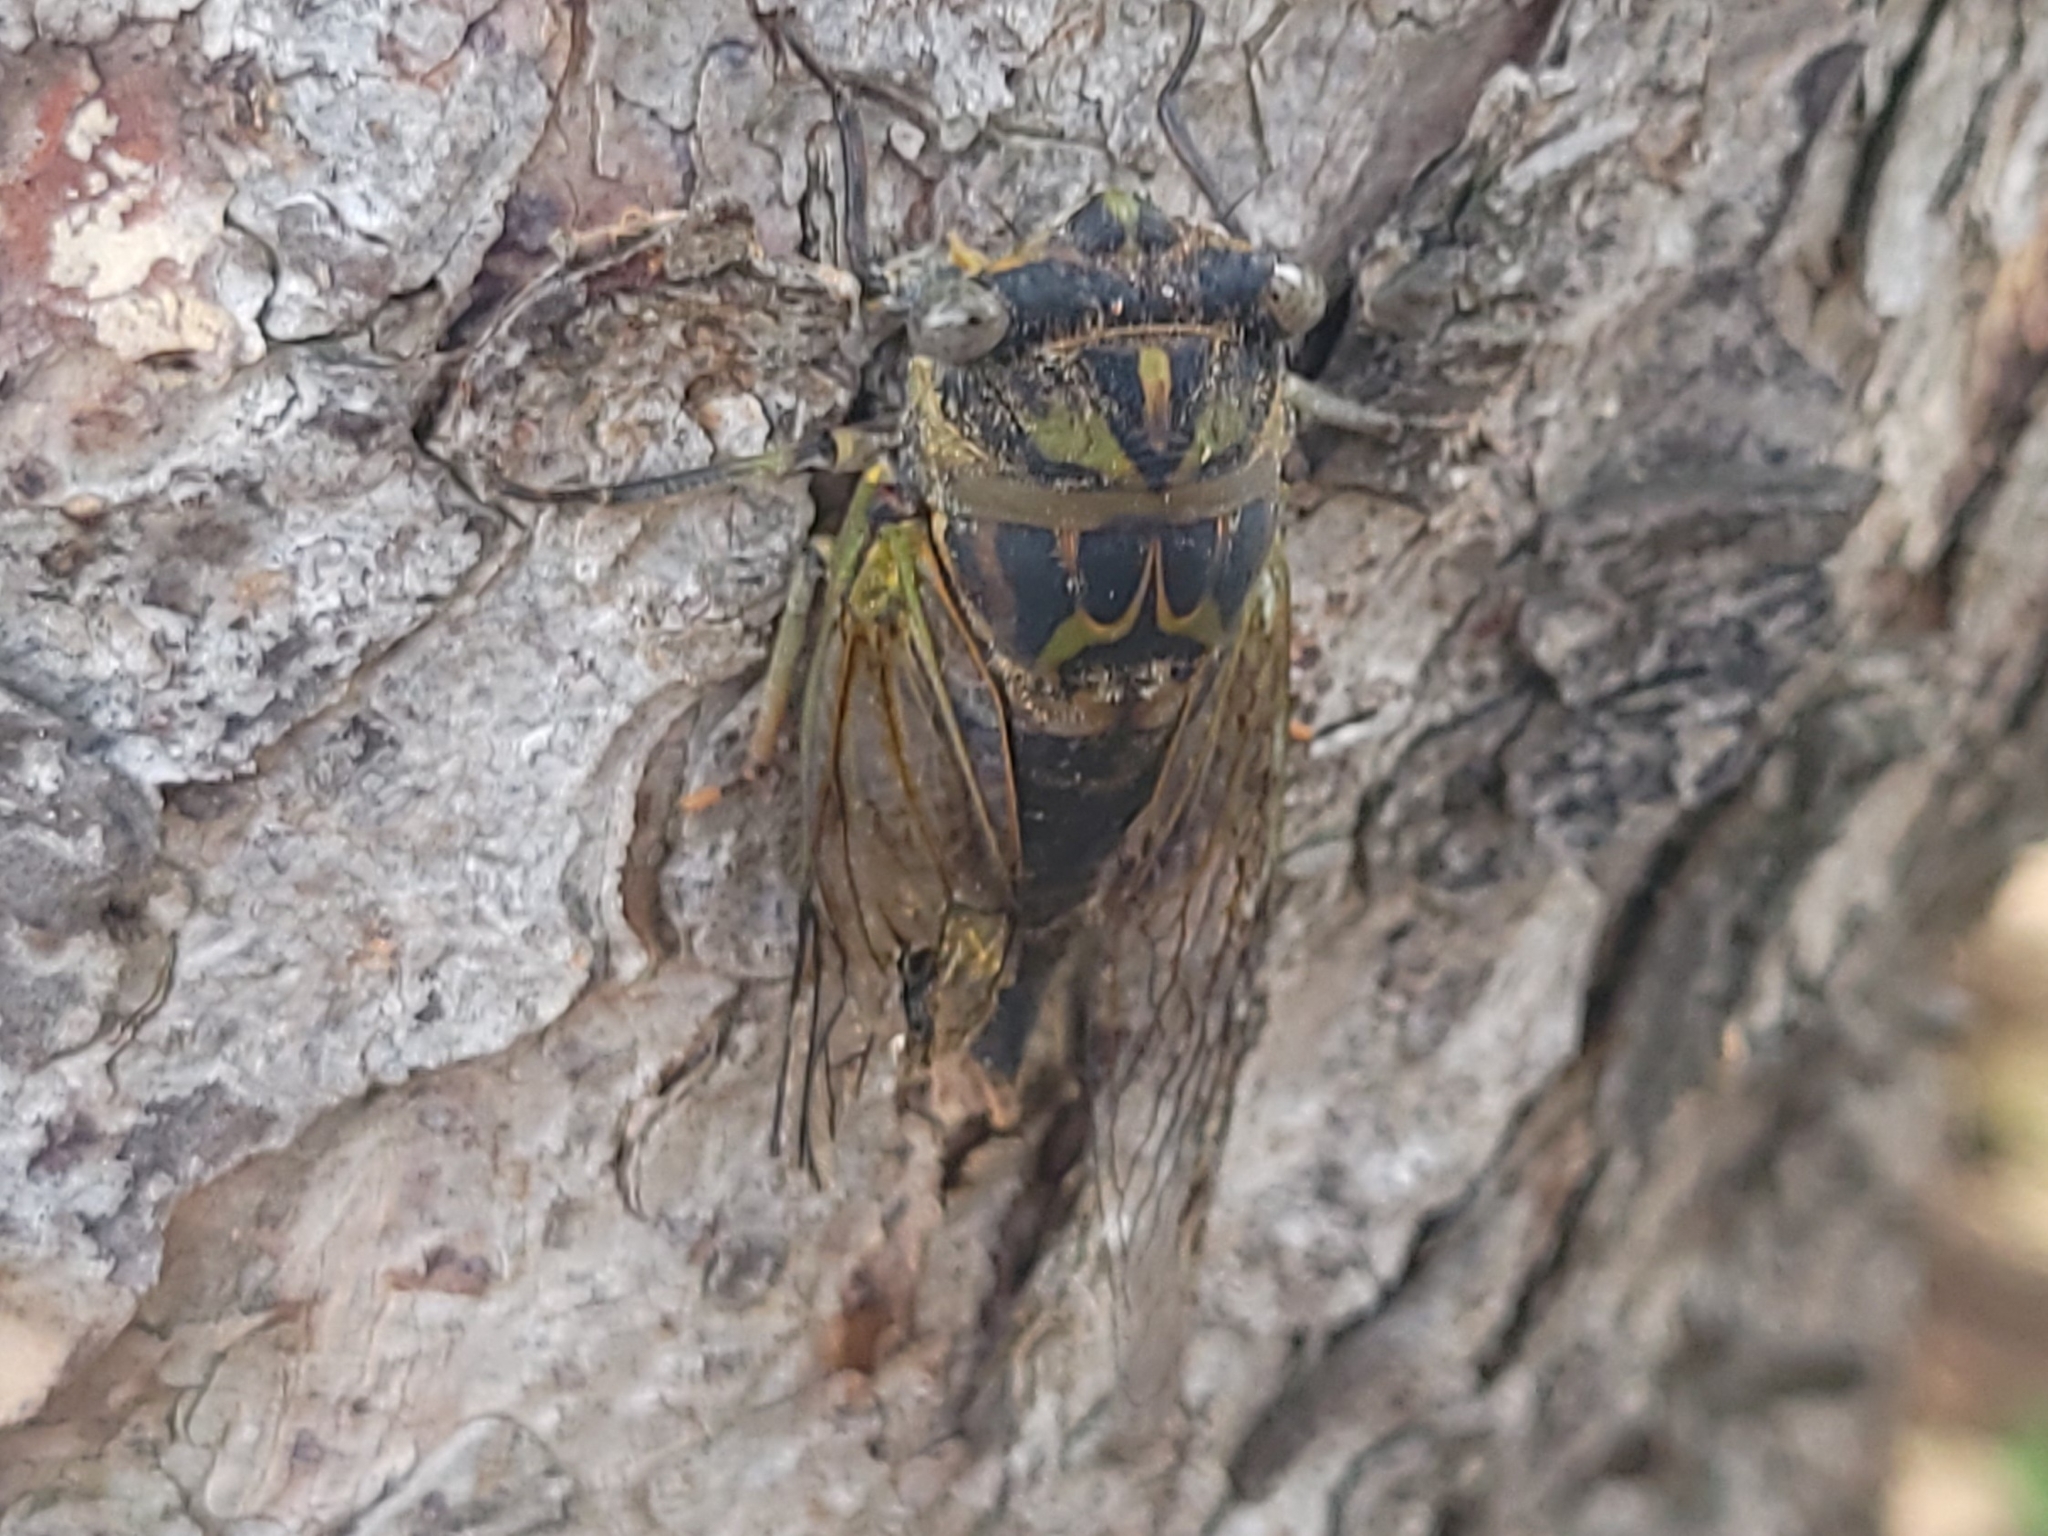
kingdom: Animalia
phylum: Arthropoda
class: Insecta
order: Hemiptera
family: Cicadidae
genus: Neotibicen
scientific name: Neotibicen canicularis
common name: God-day cicada
